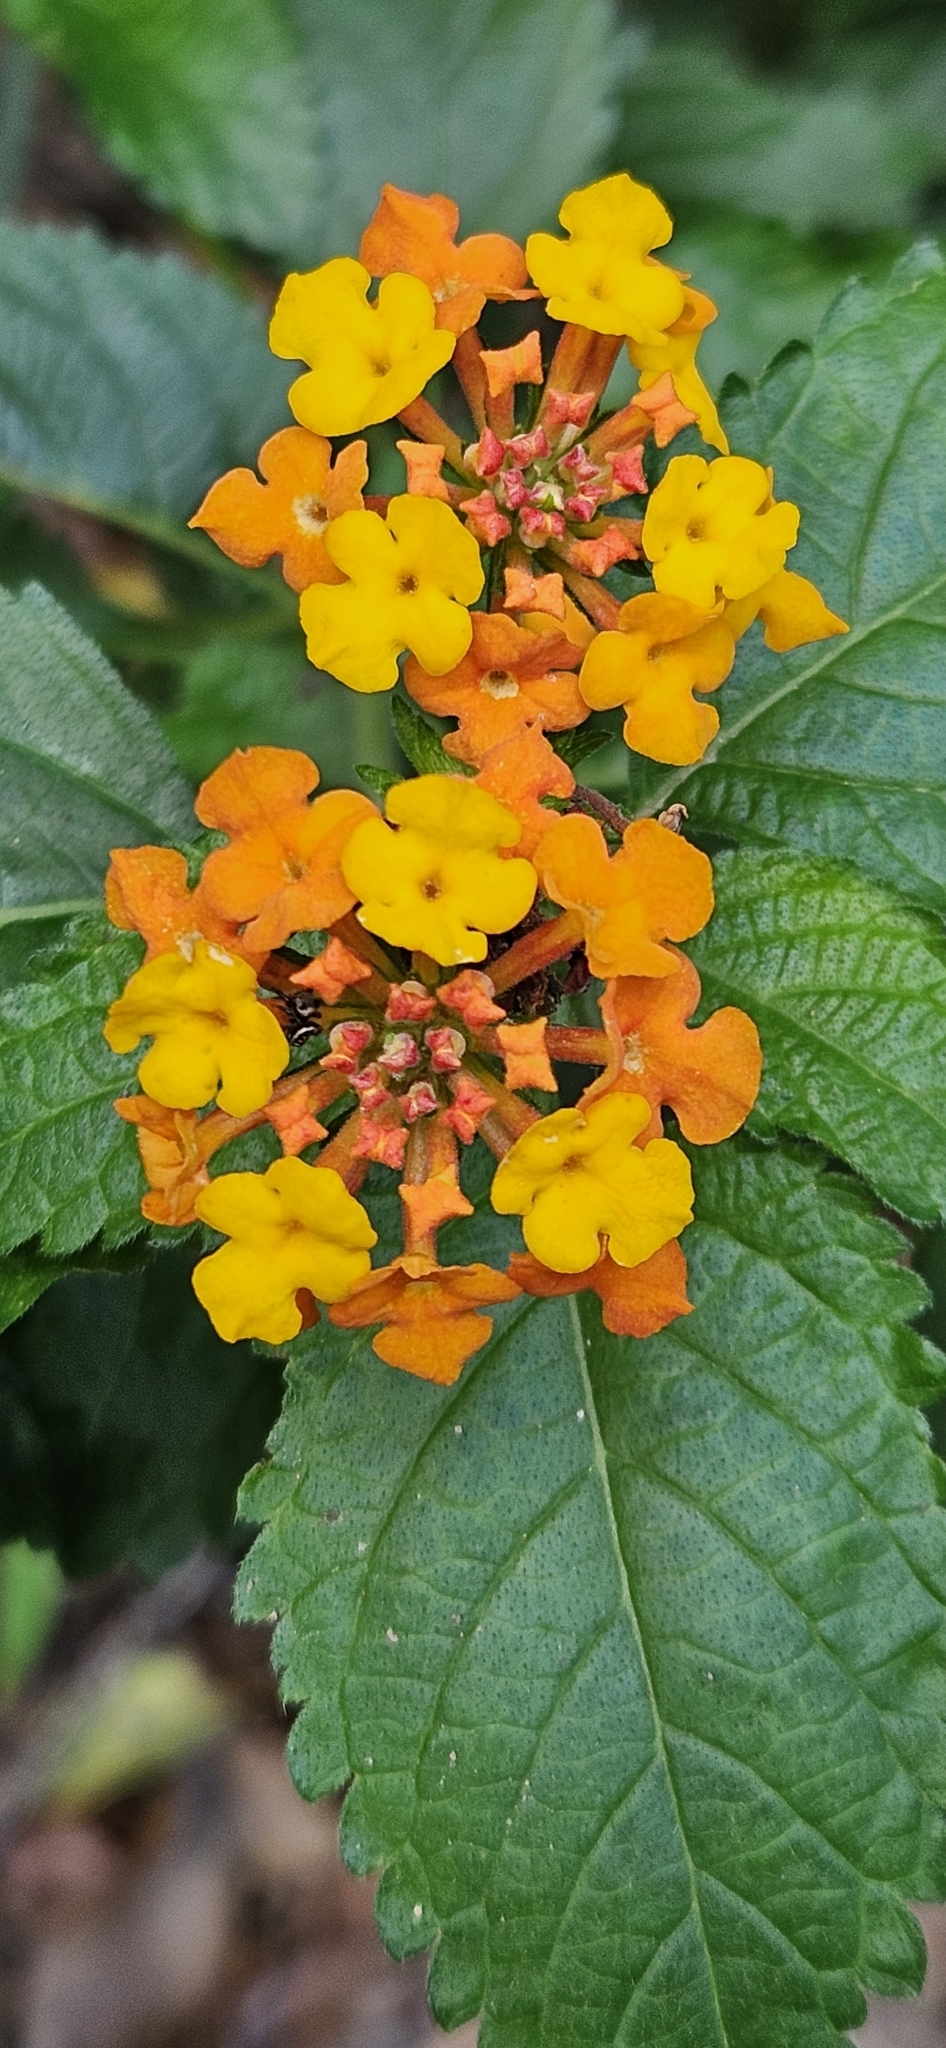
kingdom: Plantae
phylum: Tracheophyta
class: Magnoliopsida
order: Lamiales
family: Verbenaceae
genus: Lantana
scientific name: Lantana camara
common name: Lantana
